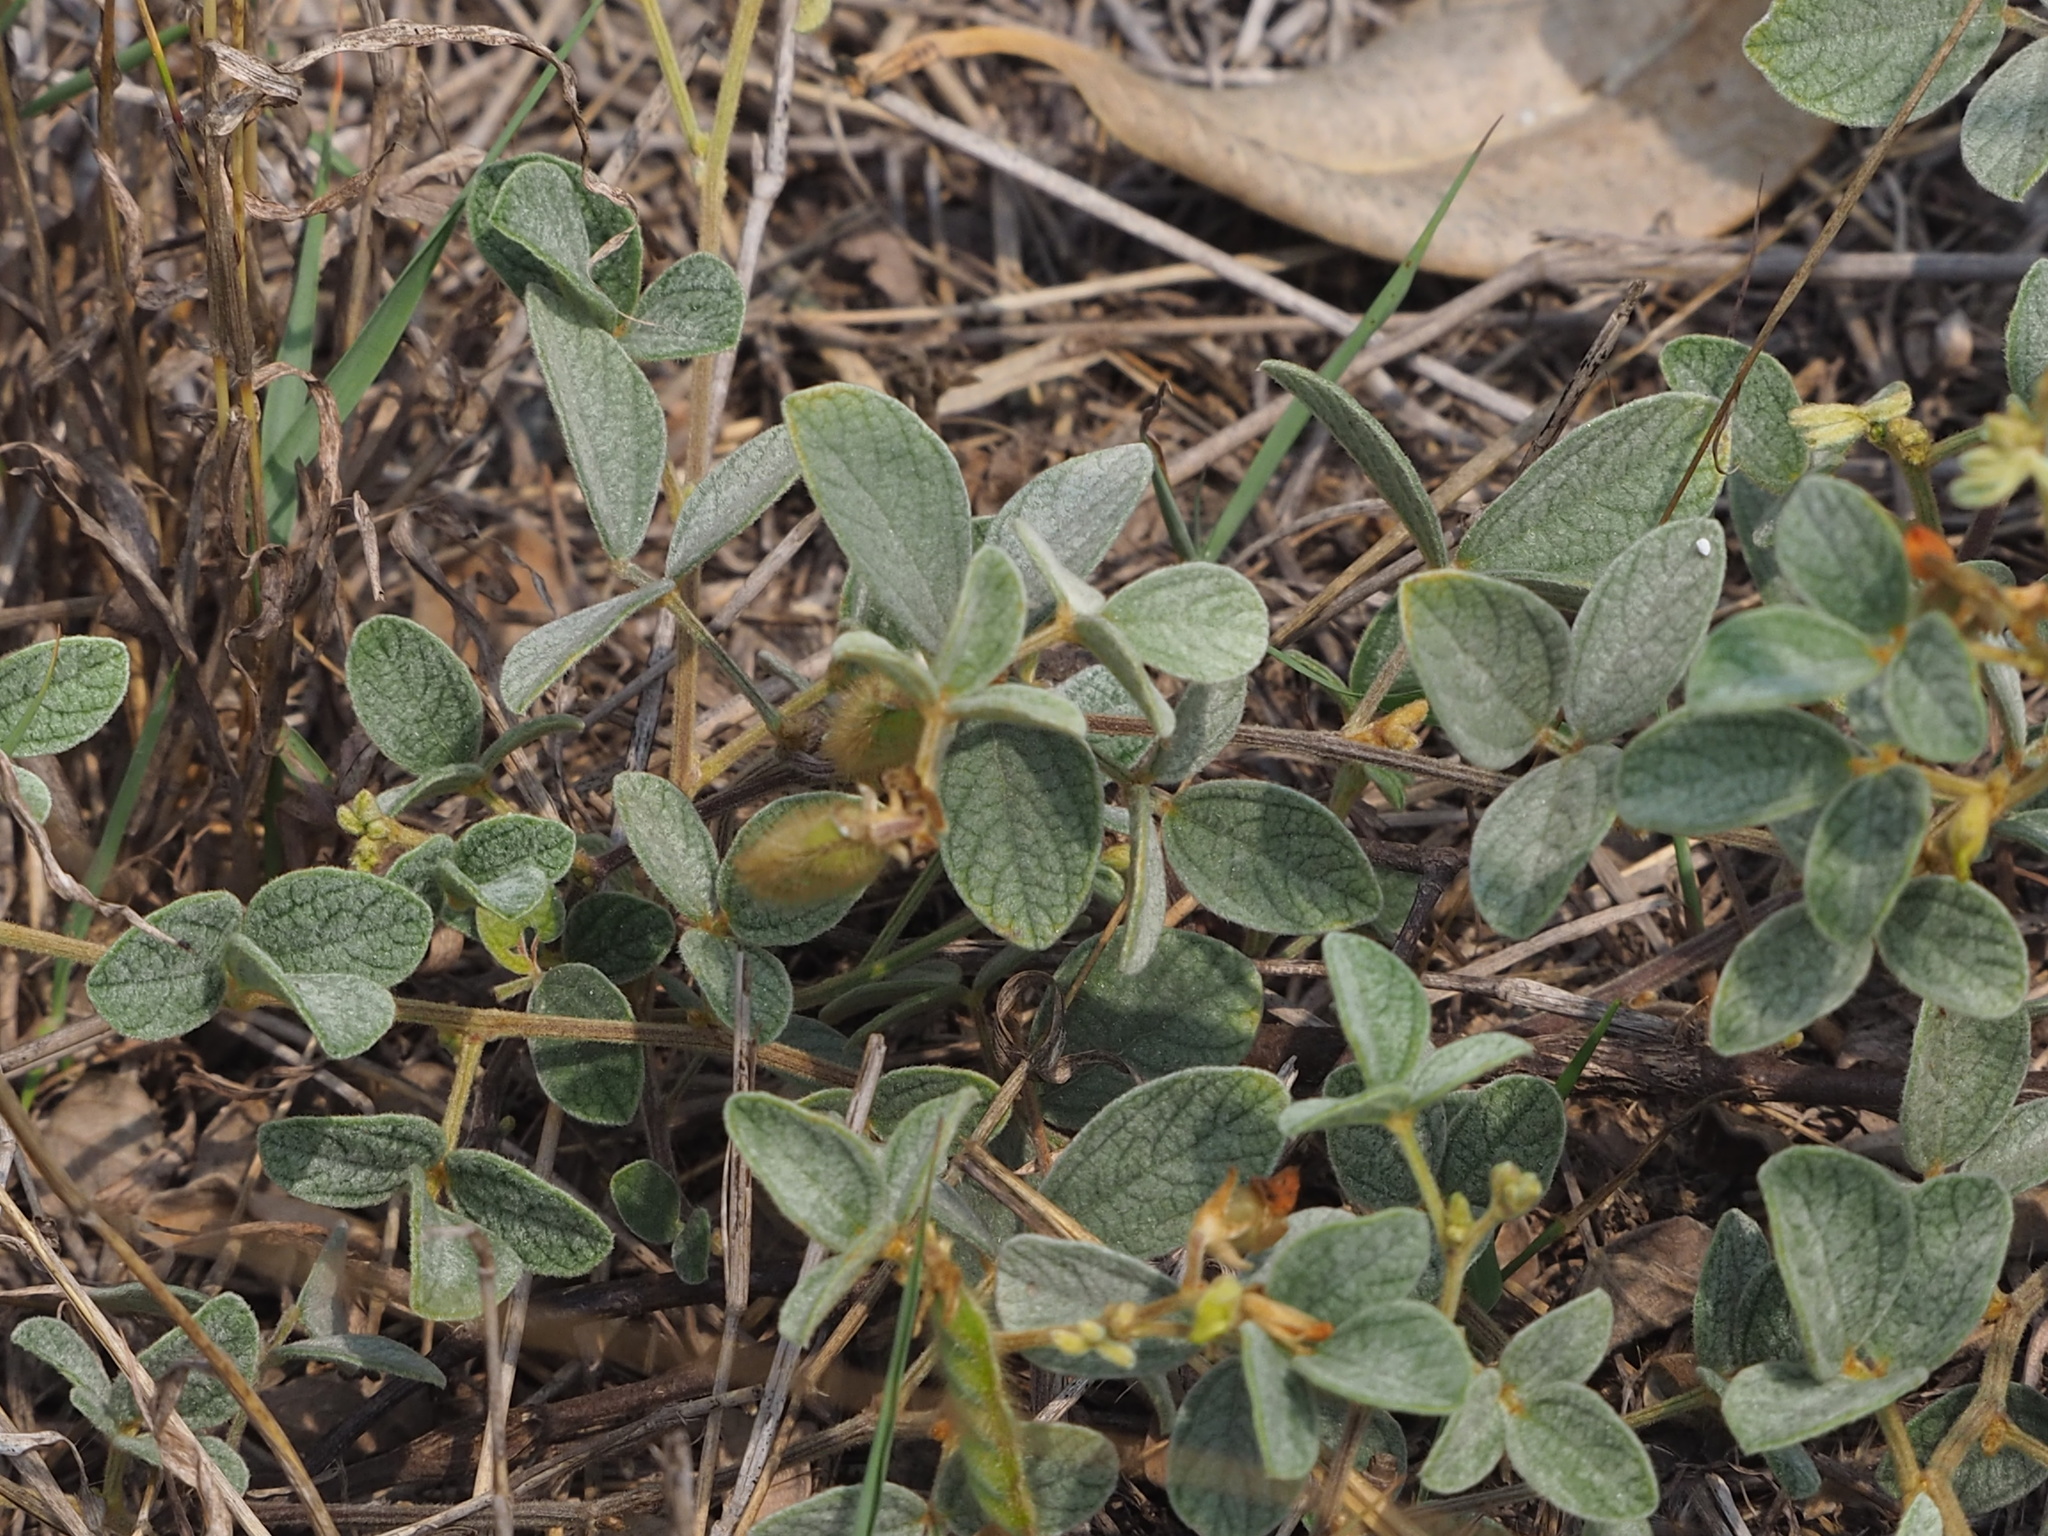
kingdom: Plantae
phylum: Tracheophyta
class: Magnoliopsida
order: Fabales
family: Fabaceae
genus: Cajanus
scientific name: Cajanus scarabaeoides
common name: Showy pigeonpea
